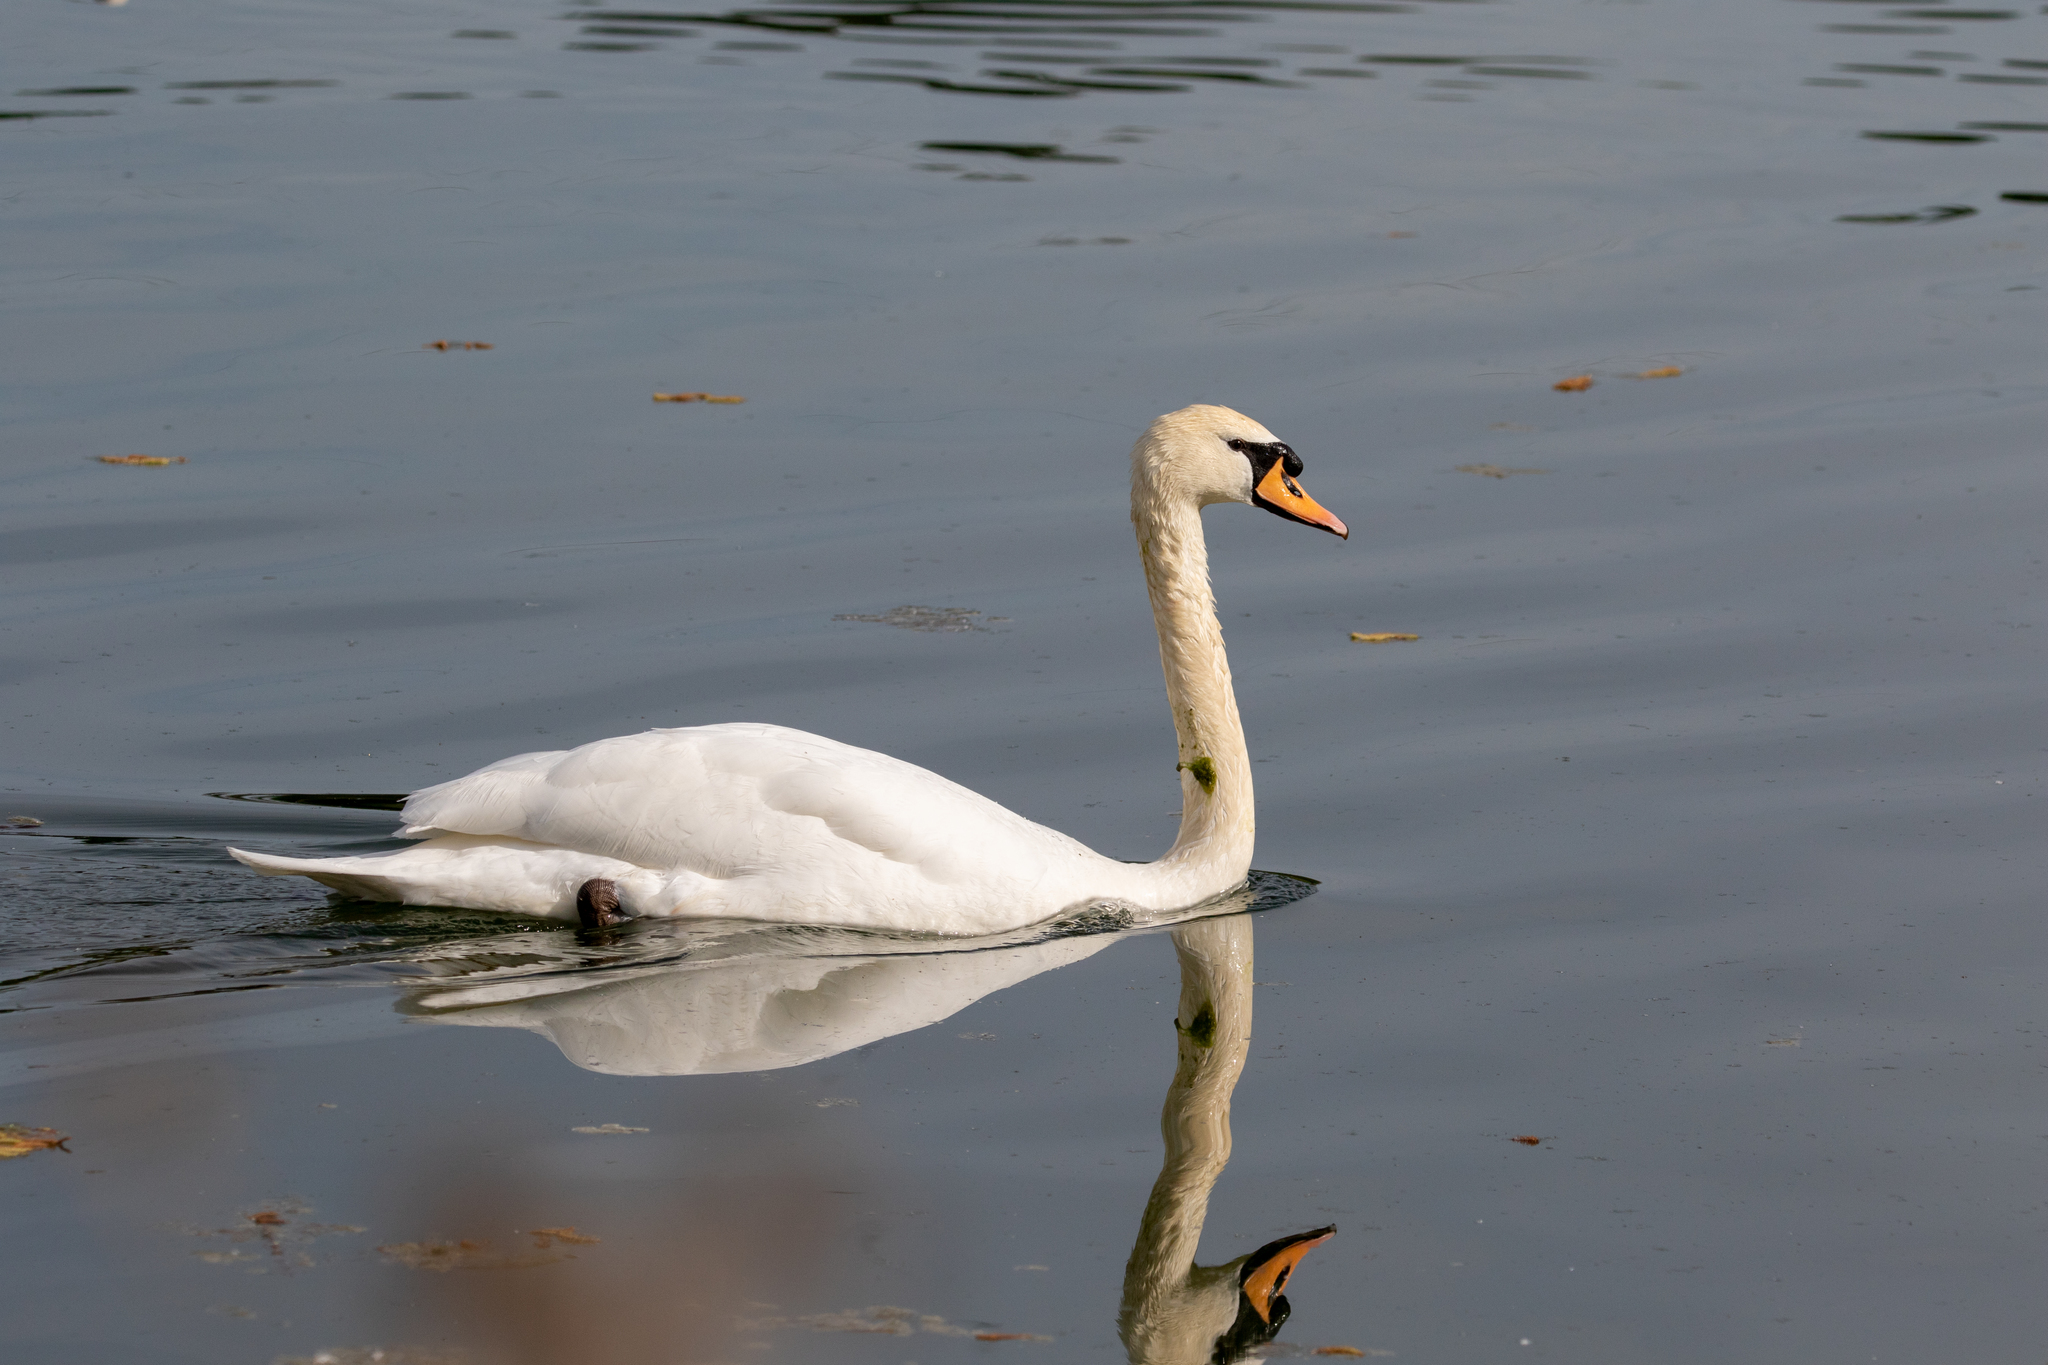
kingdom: Animalia
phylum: Chordata
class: Aves
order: Anseriformes
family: Anatidae
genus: Cygnus
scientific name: Cygnus olor
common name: Mute swan
